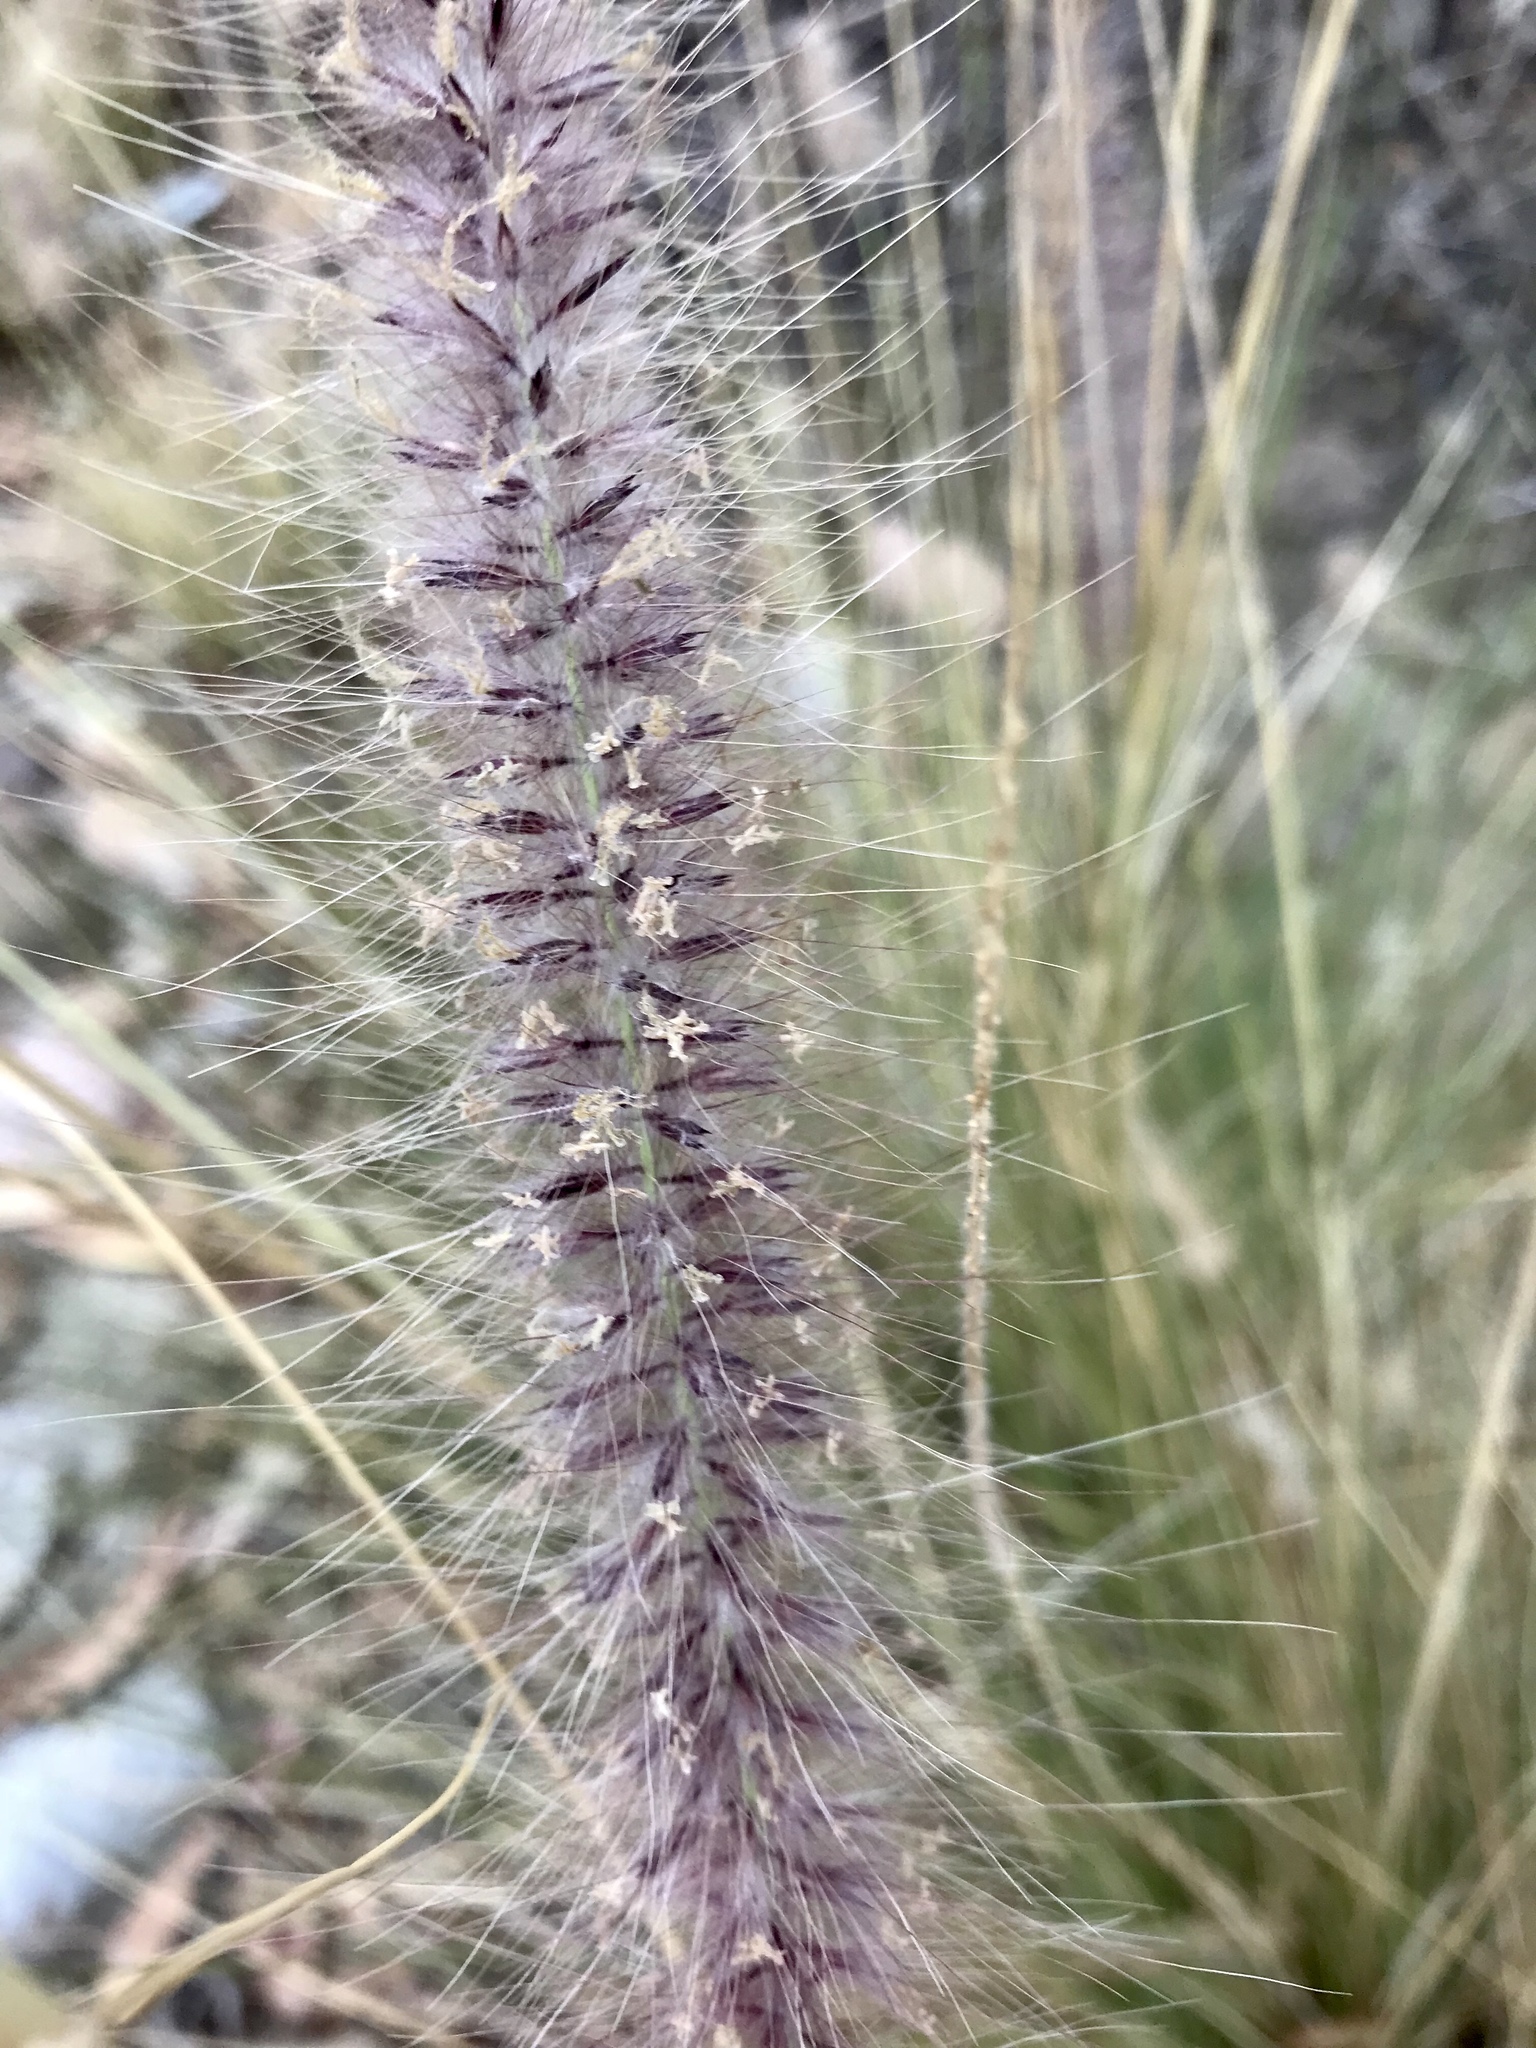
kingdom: Plantae
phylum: Tracheophyta
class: Liliopsida
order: Poales
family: Poaceae
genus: Cenchrus
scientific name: Cenchrus setaceus
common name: Crimson fountaingrass
